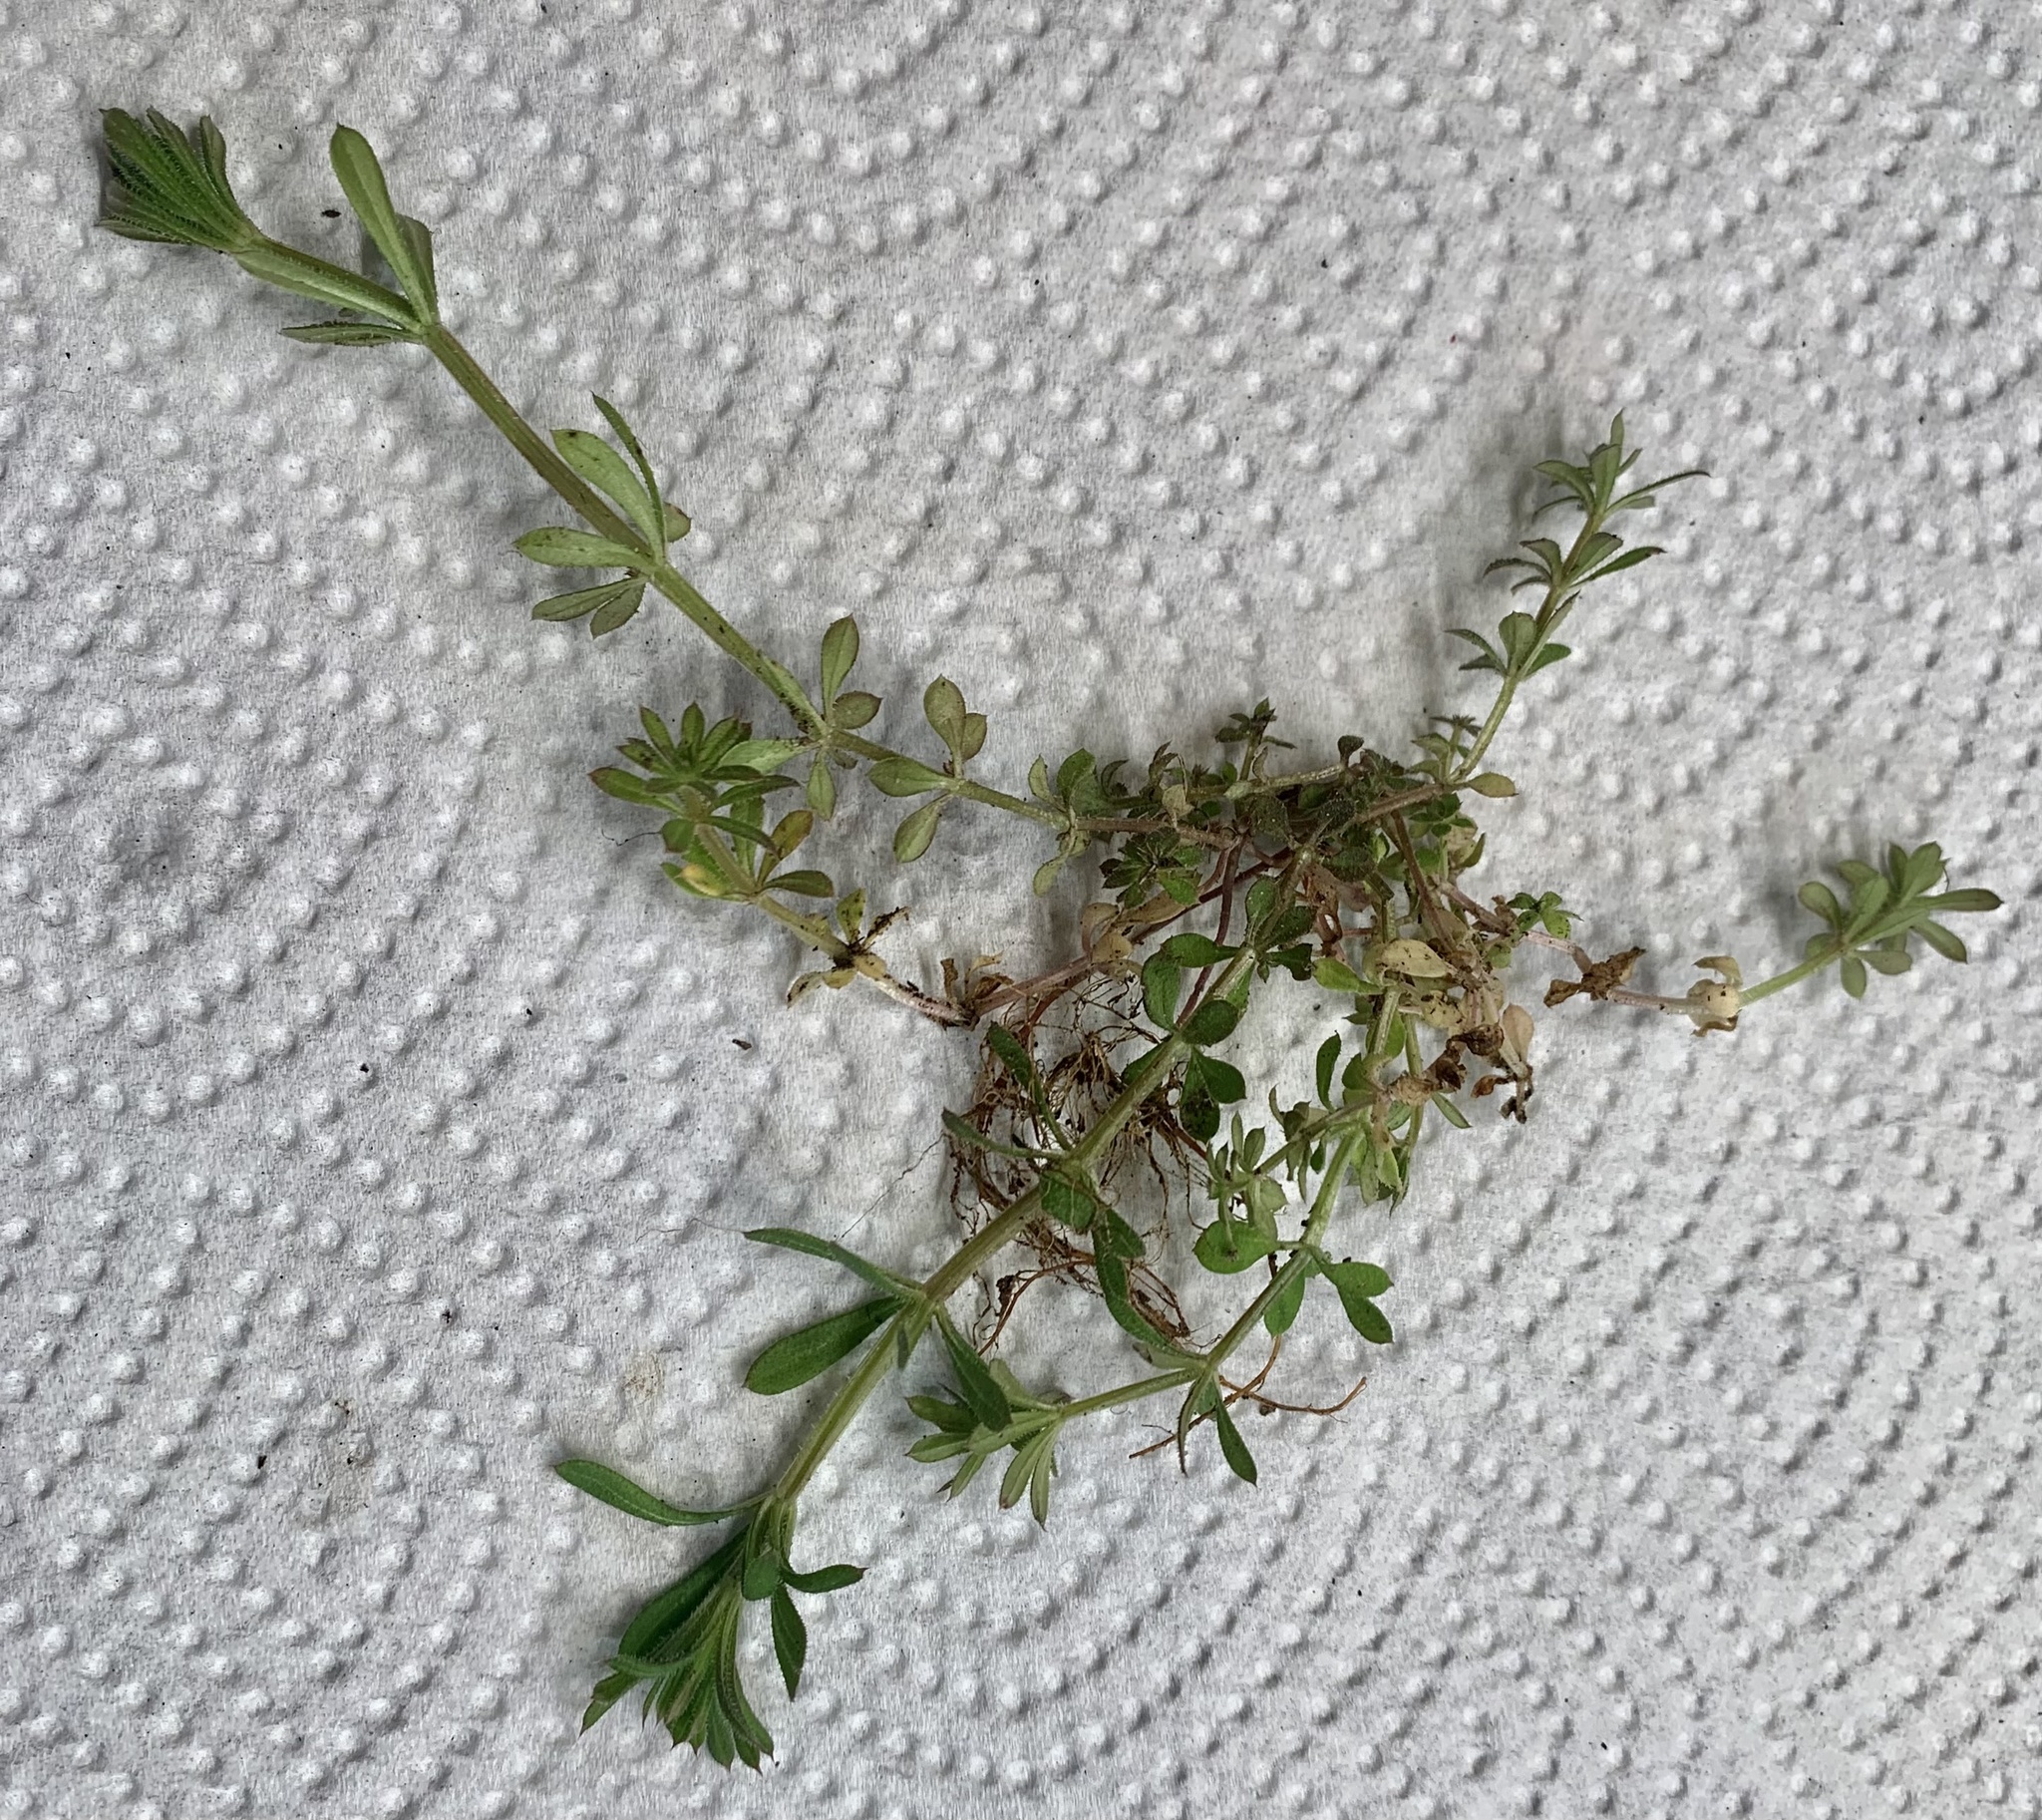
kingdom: Plantae
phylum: Tracheophyta
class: Magnoliopsida
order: Gentianales
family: Rubiaceae
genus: Galium
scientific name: Galium aparine
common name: Cleavers
